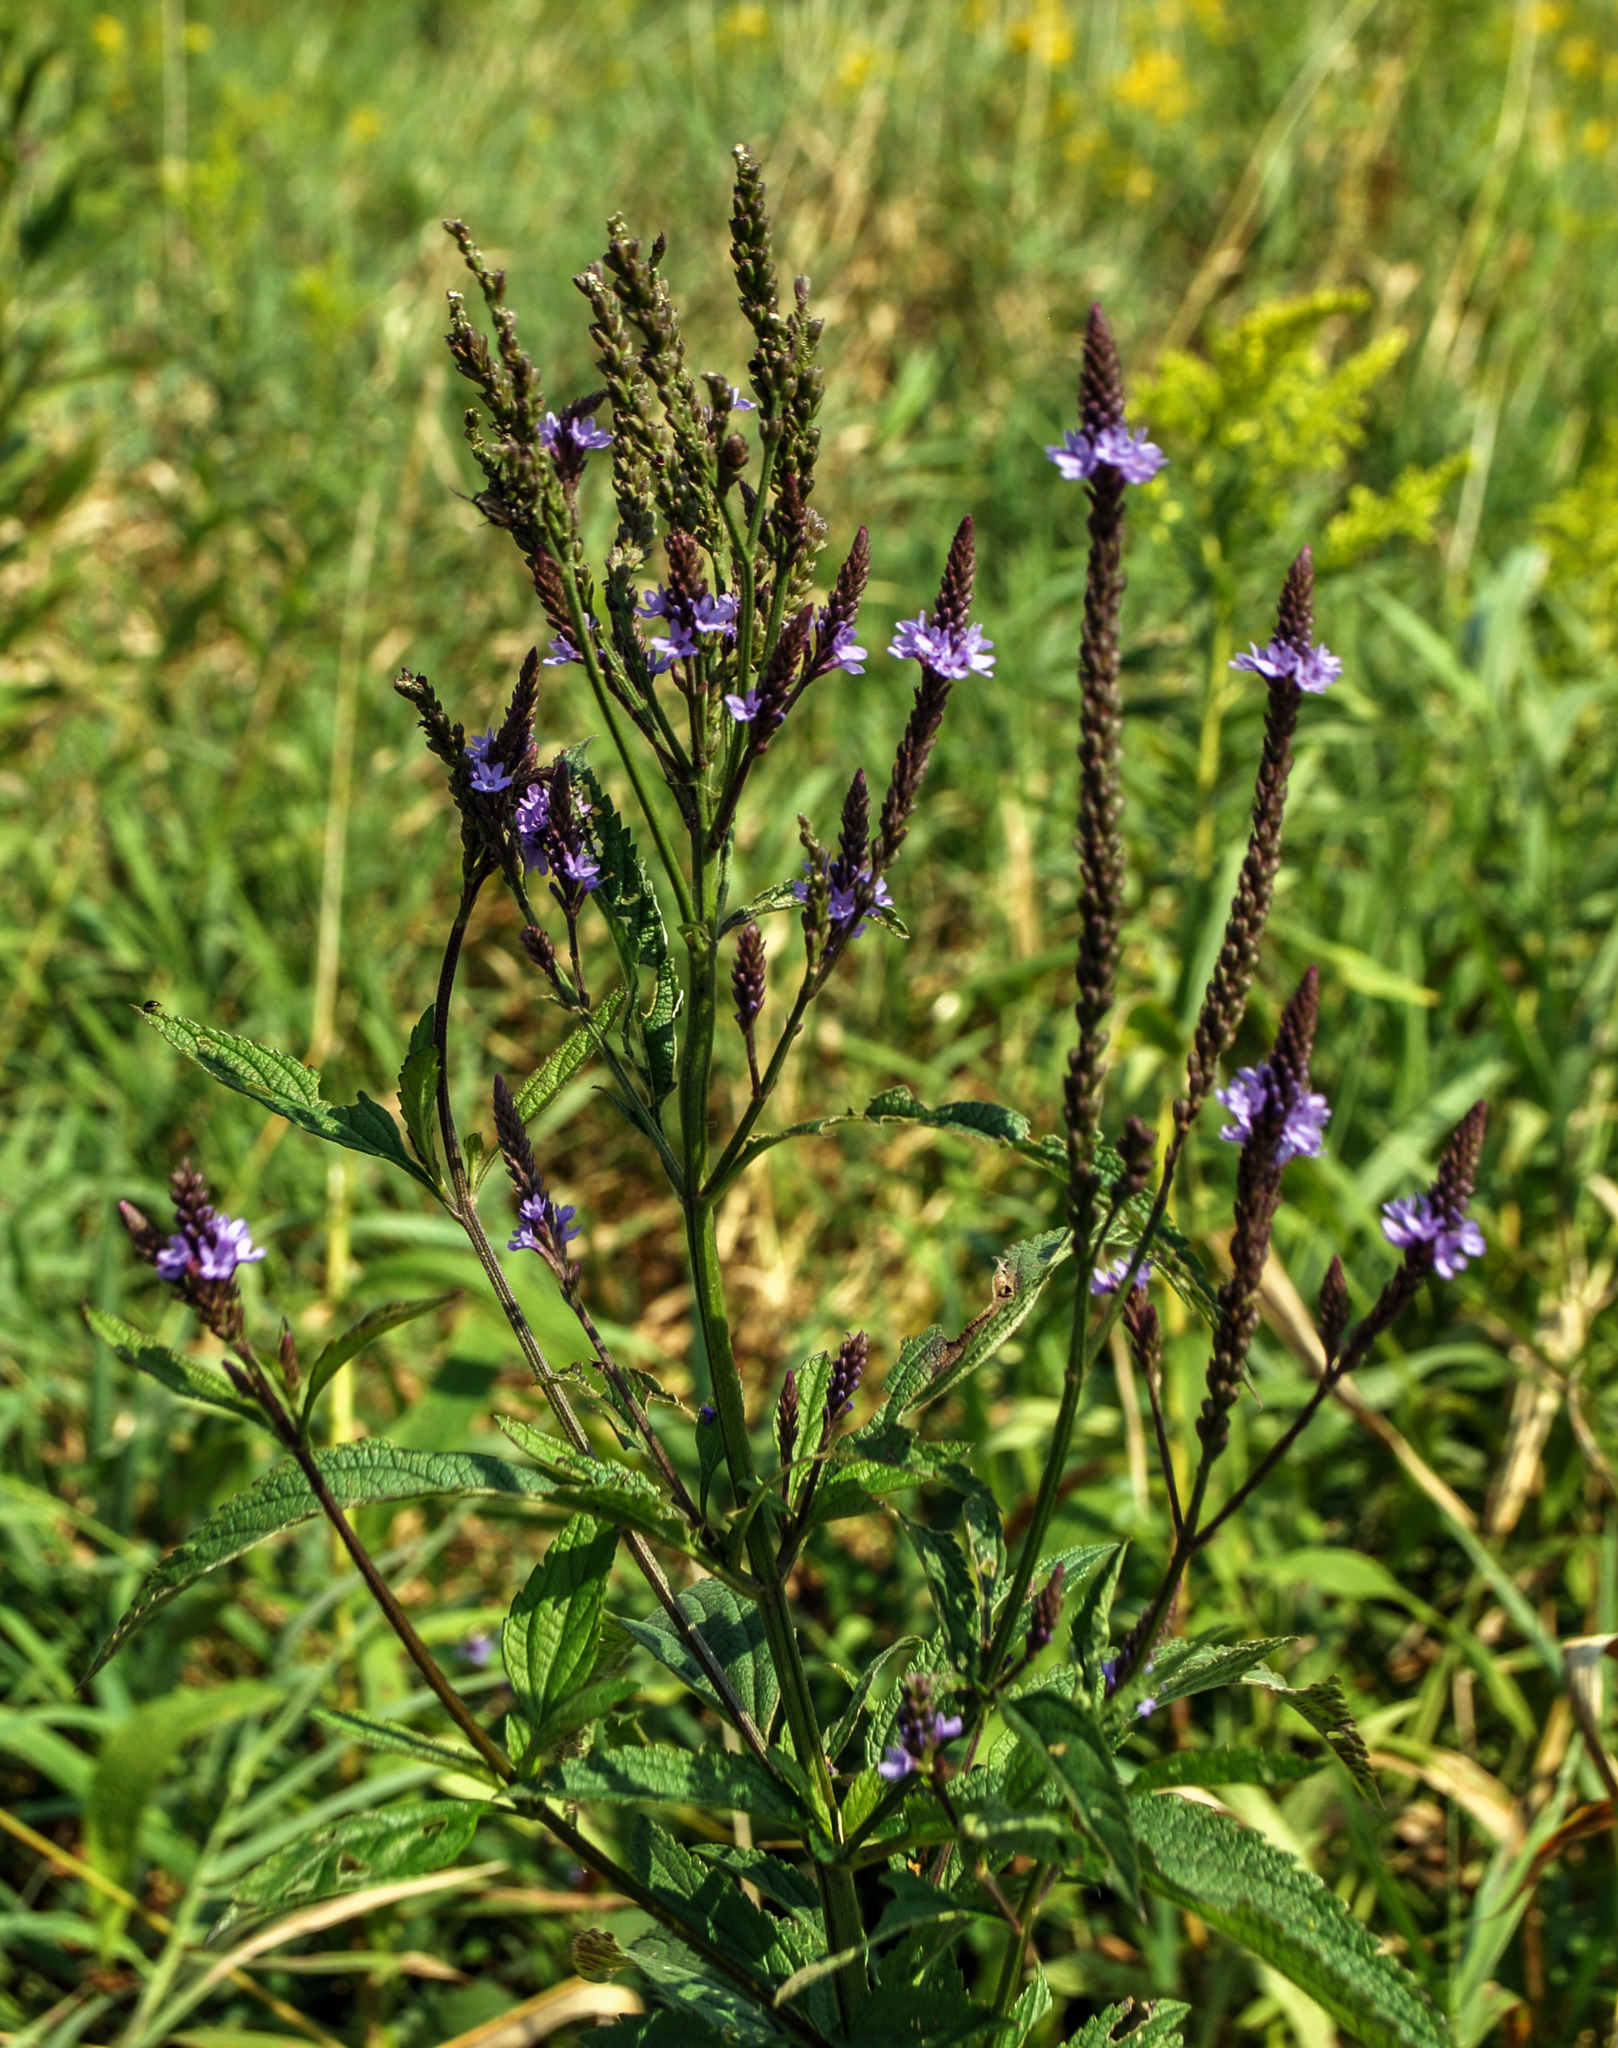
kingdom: Plantae
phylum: Tracheophyta
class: Magnoliopsida
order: Lamiales
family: Verbenaceae
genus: Verbena
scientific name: Verbena hastata
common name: American blue vervain
